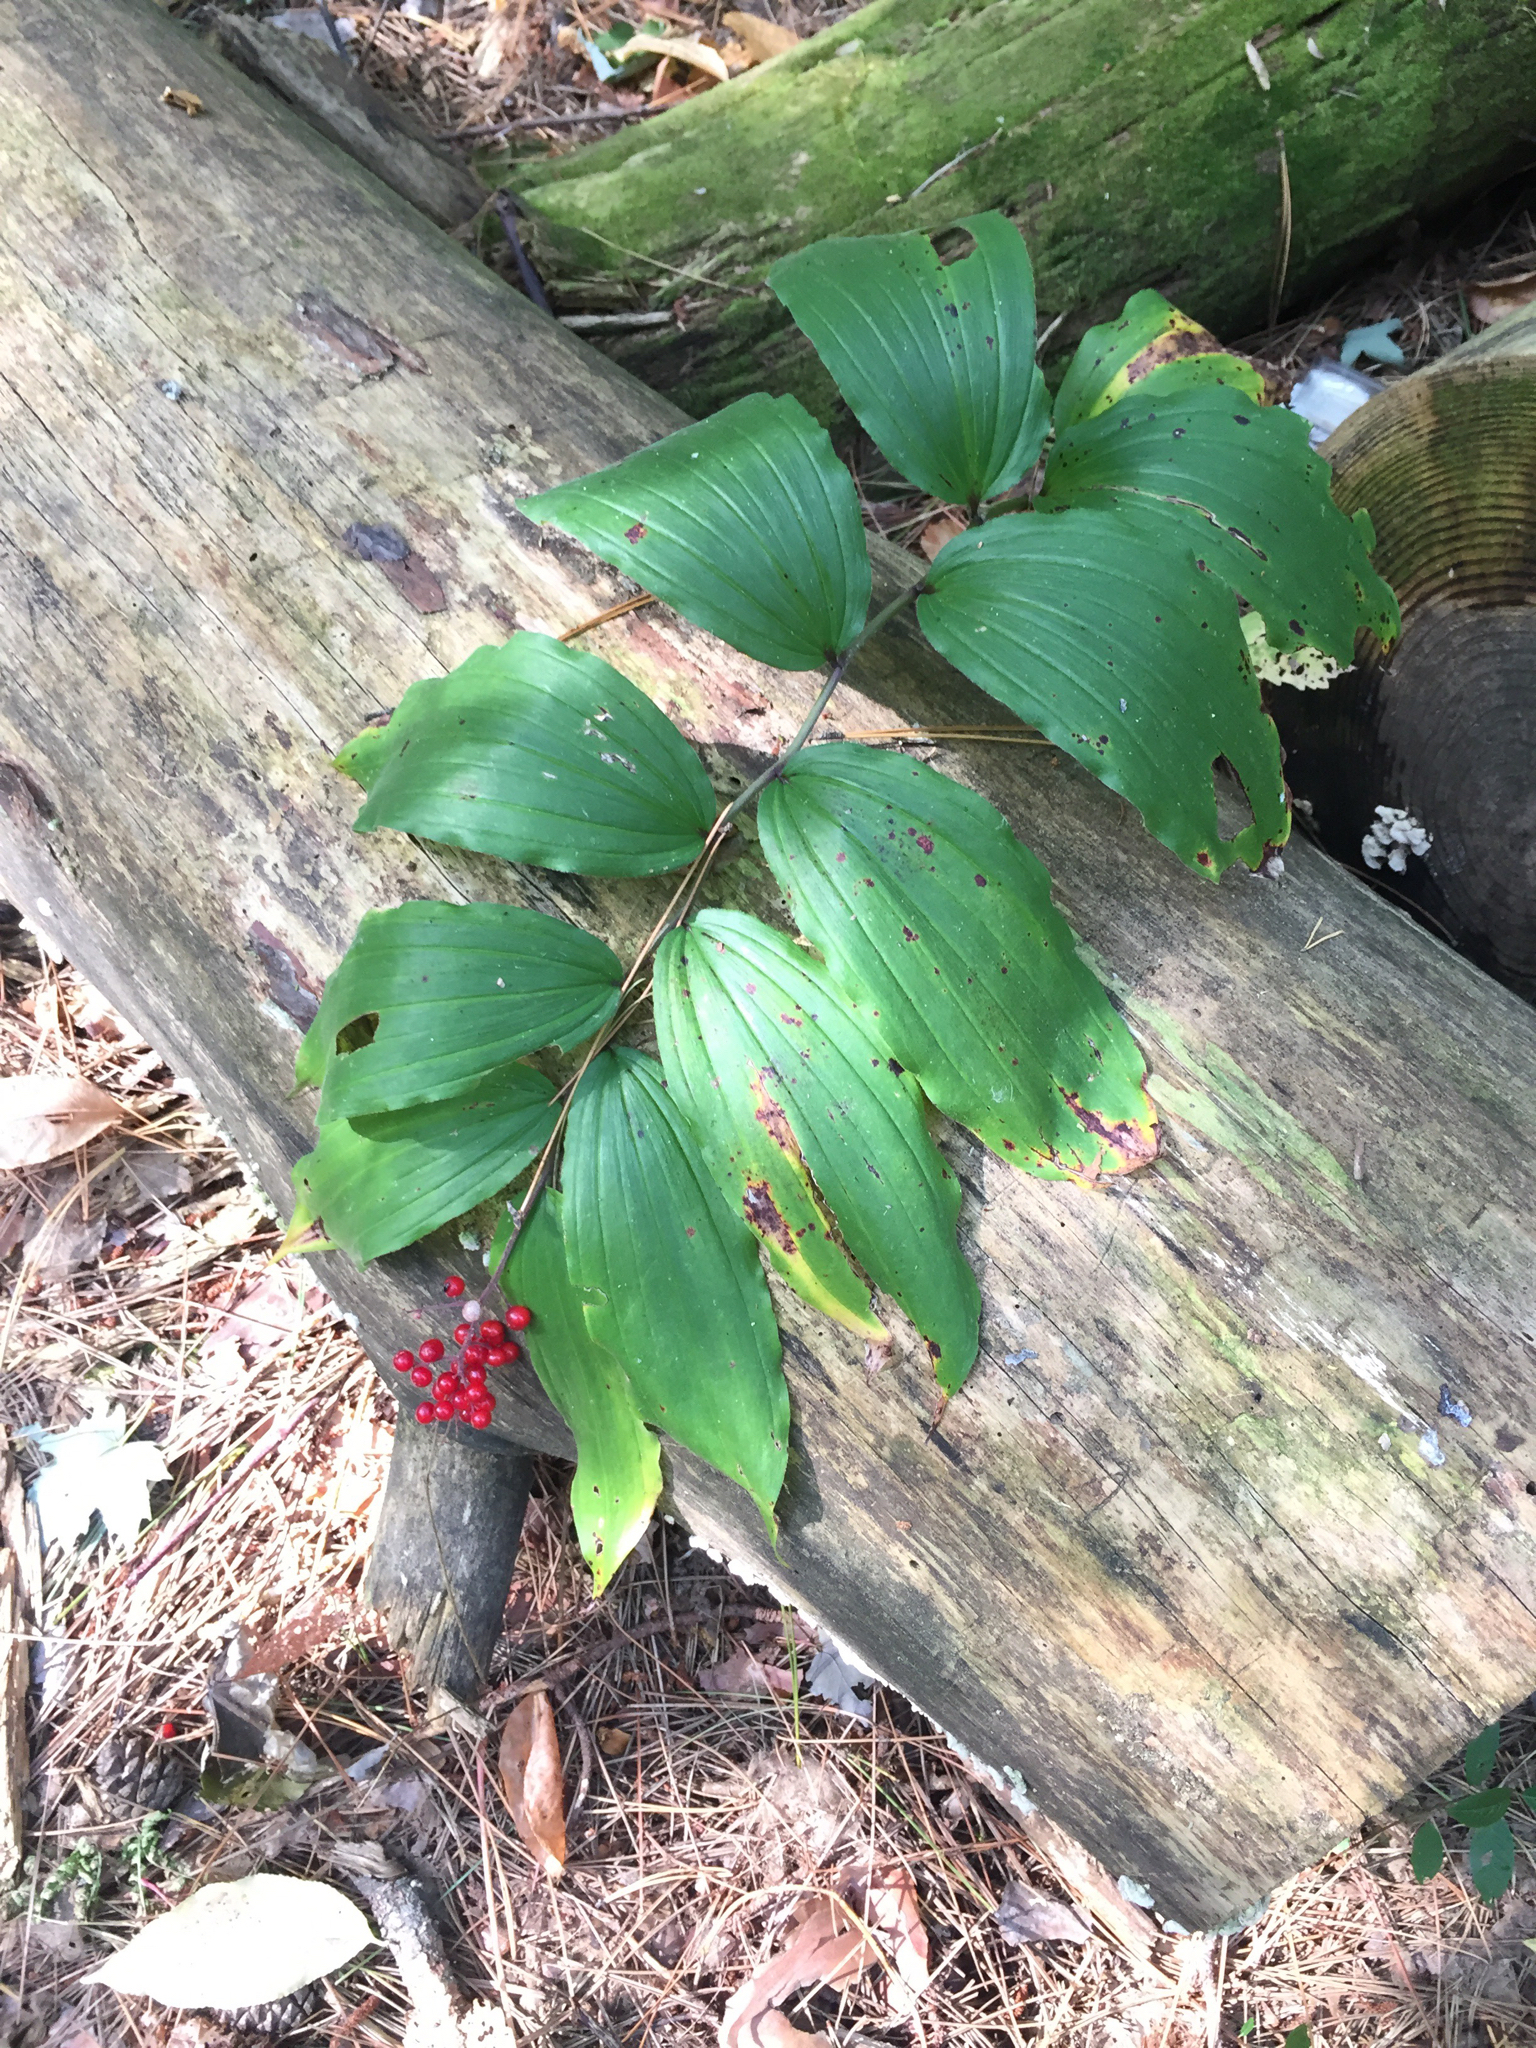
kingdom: Plantae
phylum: Tracheophyta
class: Liliopsida
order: Asparagales
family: Asparagaceae
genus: Maianthemum
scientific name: Maianthemum racemosum
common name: False spikenard
